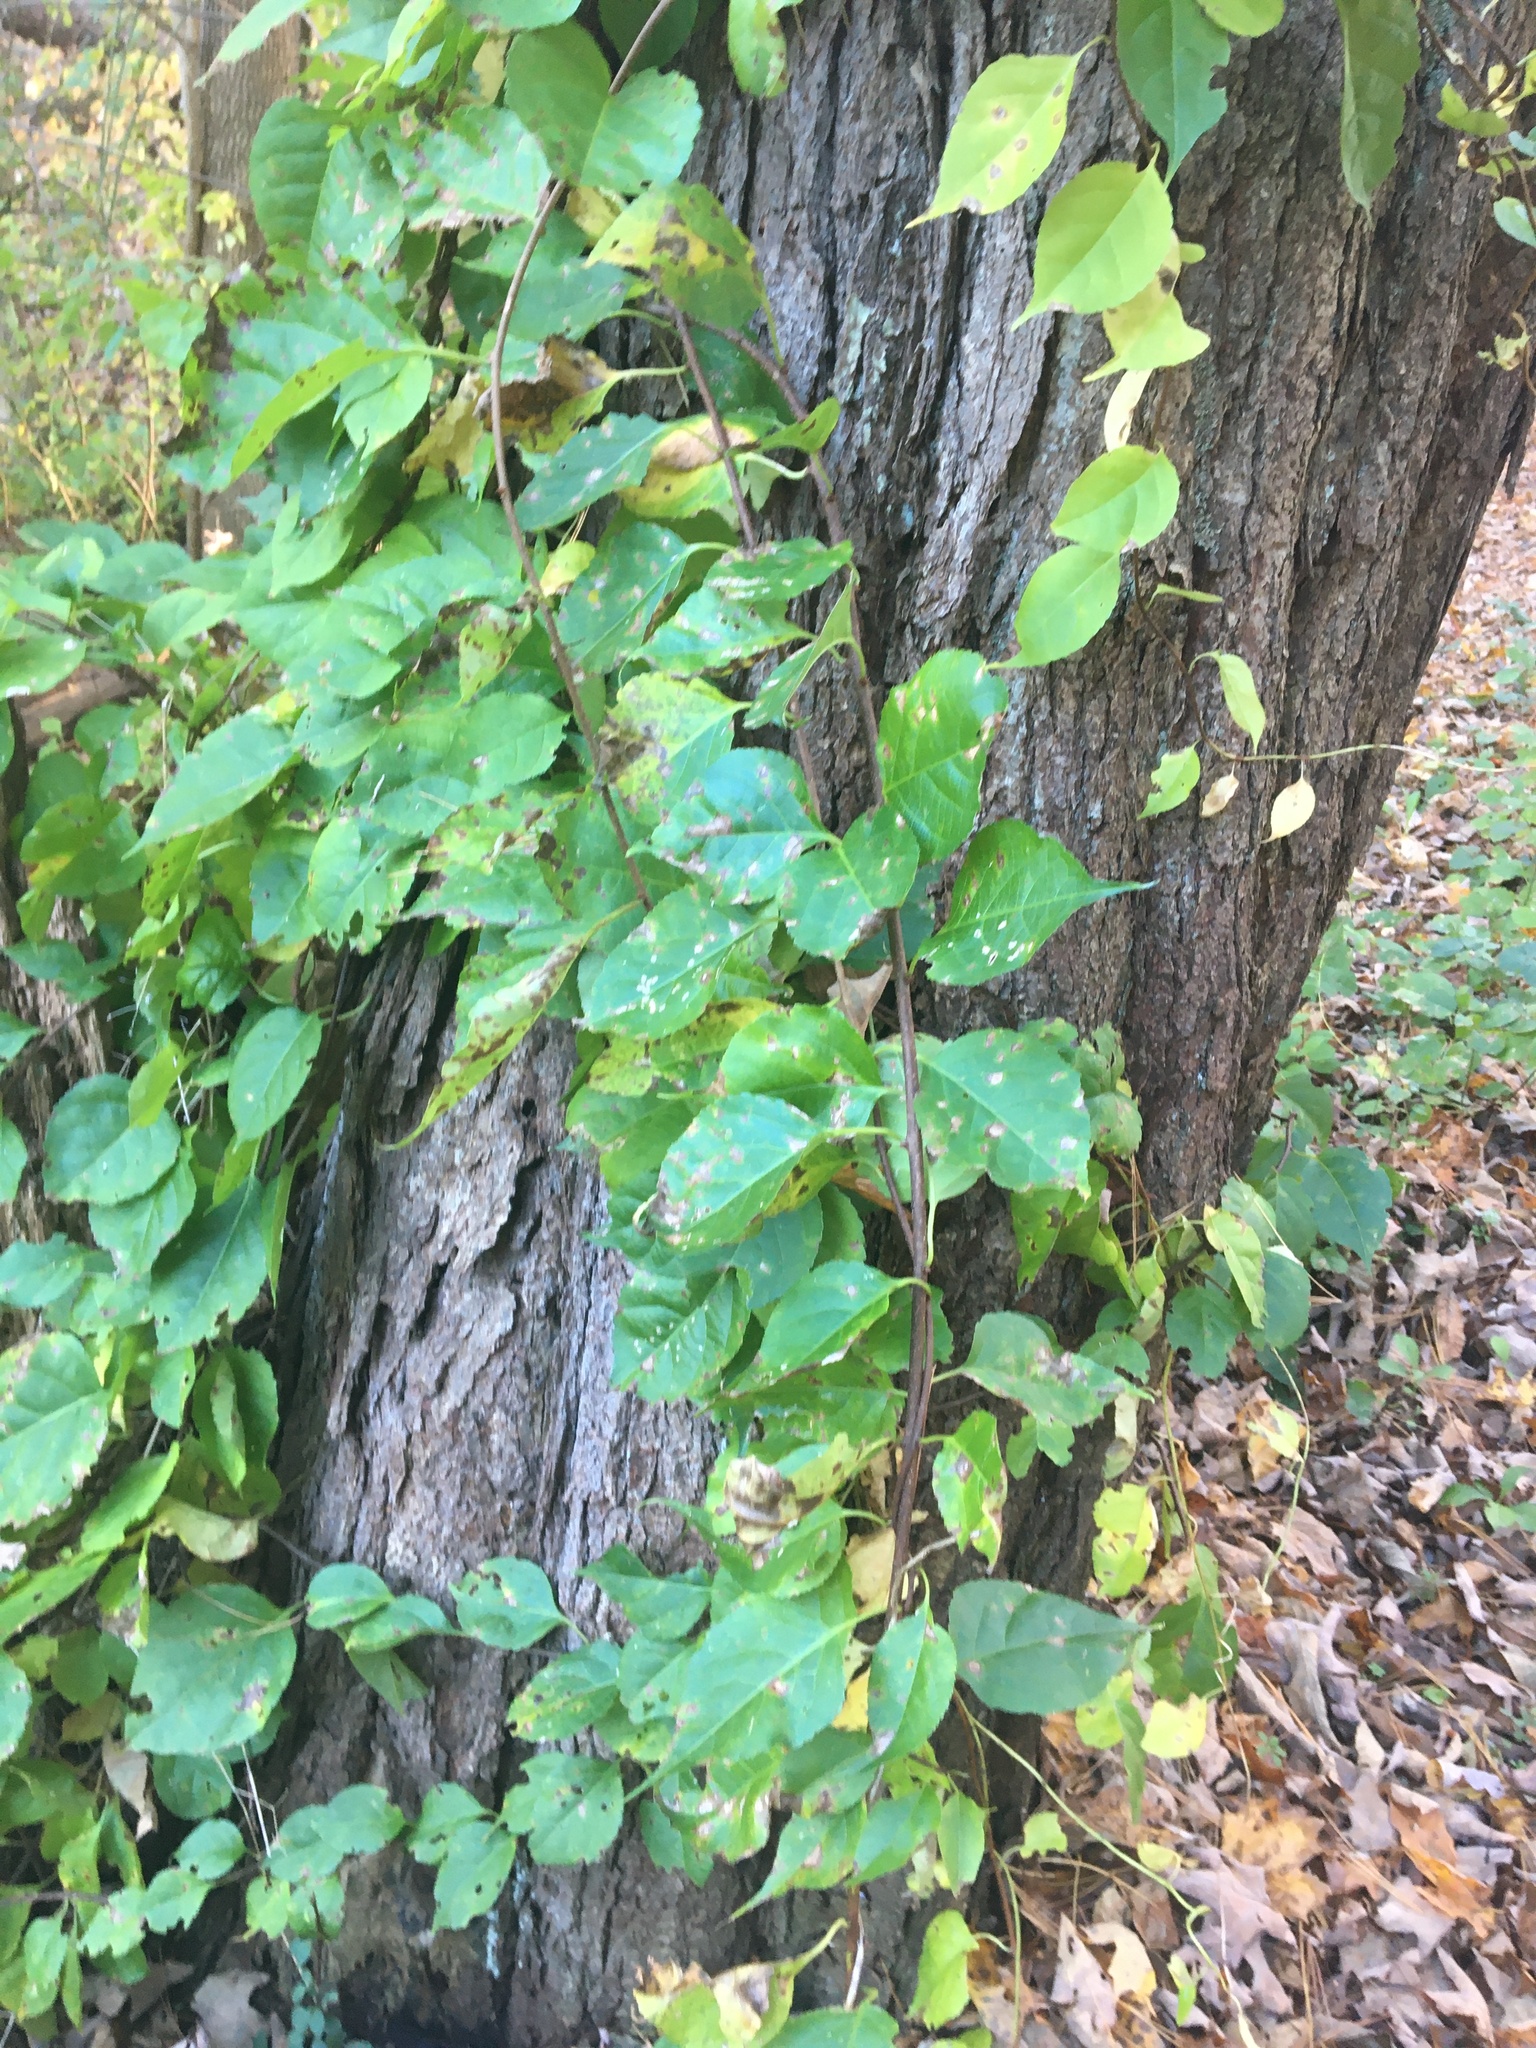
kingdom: Plantae
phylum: Tracheophyta
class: Magnoliopsida
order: Celastrales
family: Celastraceae
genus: Celastrus
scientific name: Celastrus orbiculatus
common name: Oriental bittersweet
